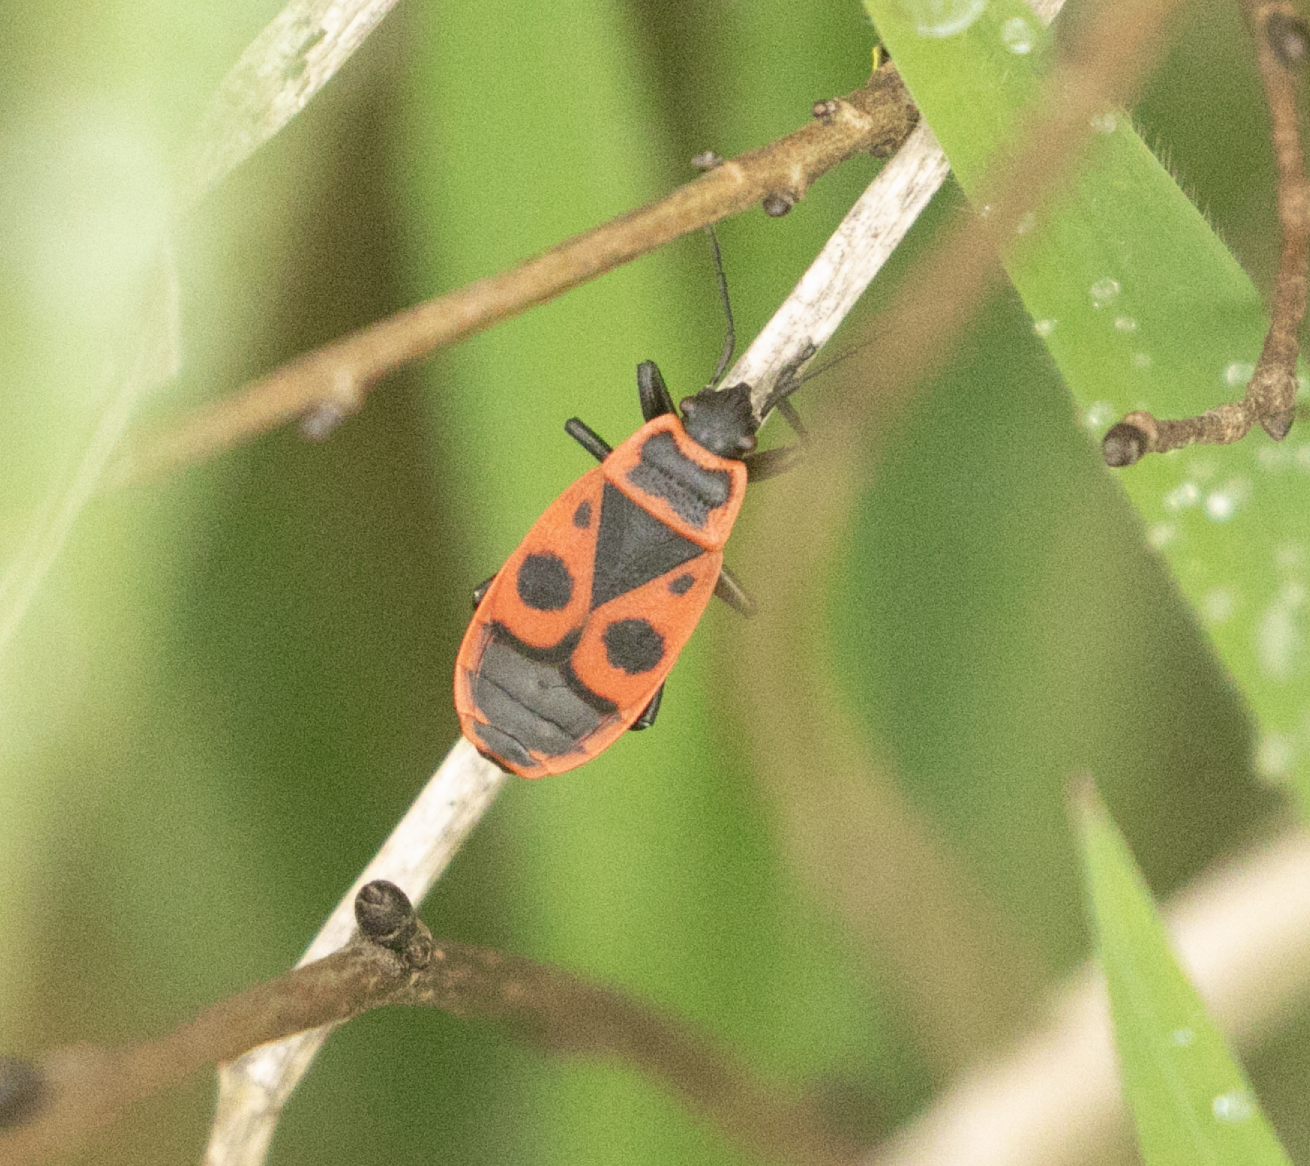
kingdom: Animalia
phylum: Arthropoda
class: Insecta
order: Hemiptera
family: Pyrrhocoridae
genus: Pyrrhocoris
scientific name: Pyrrhocoris apterus
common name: Firebug
